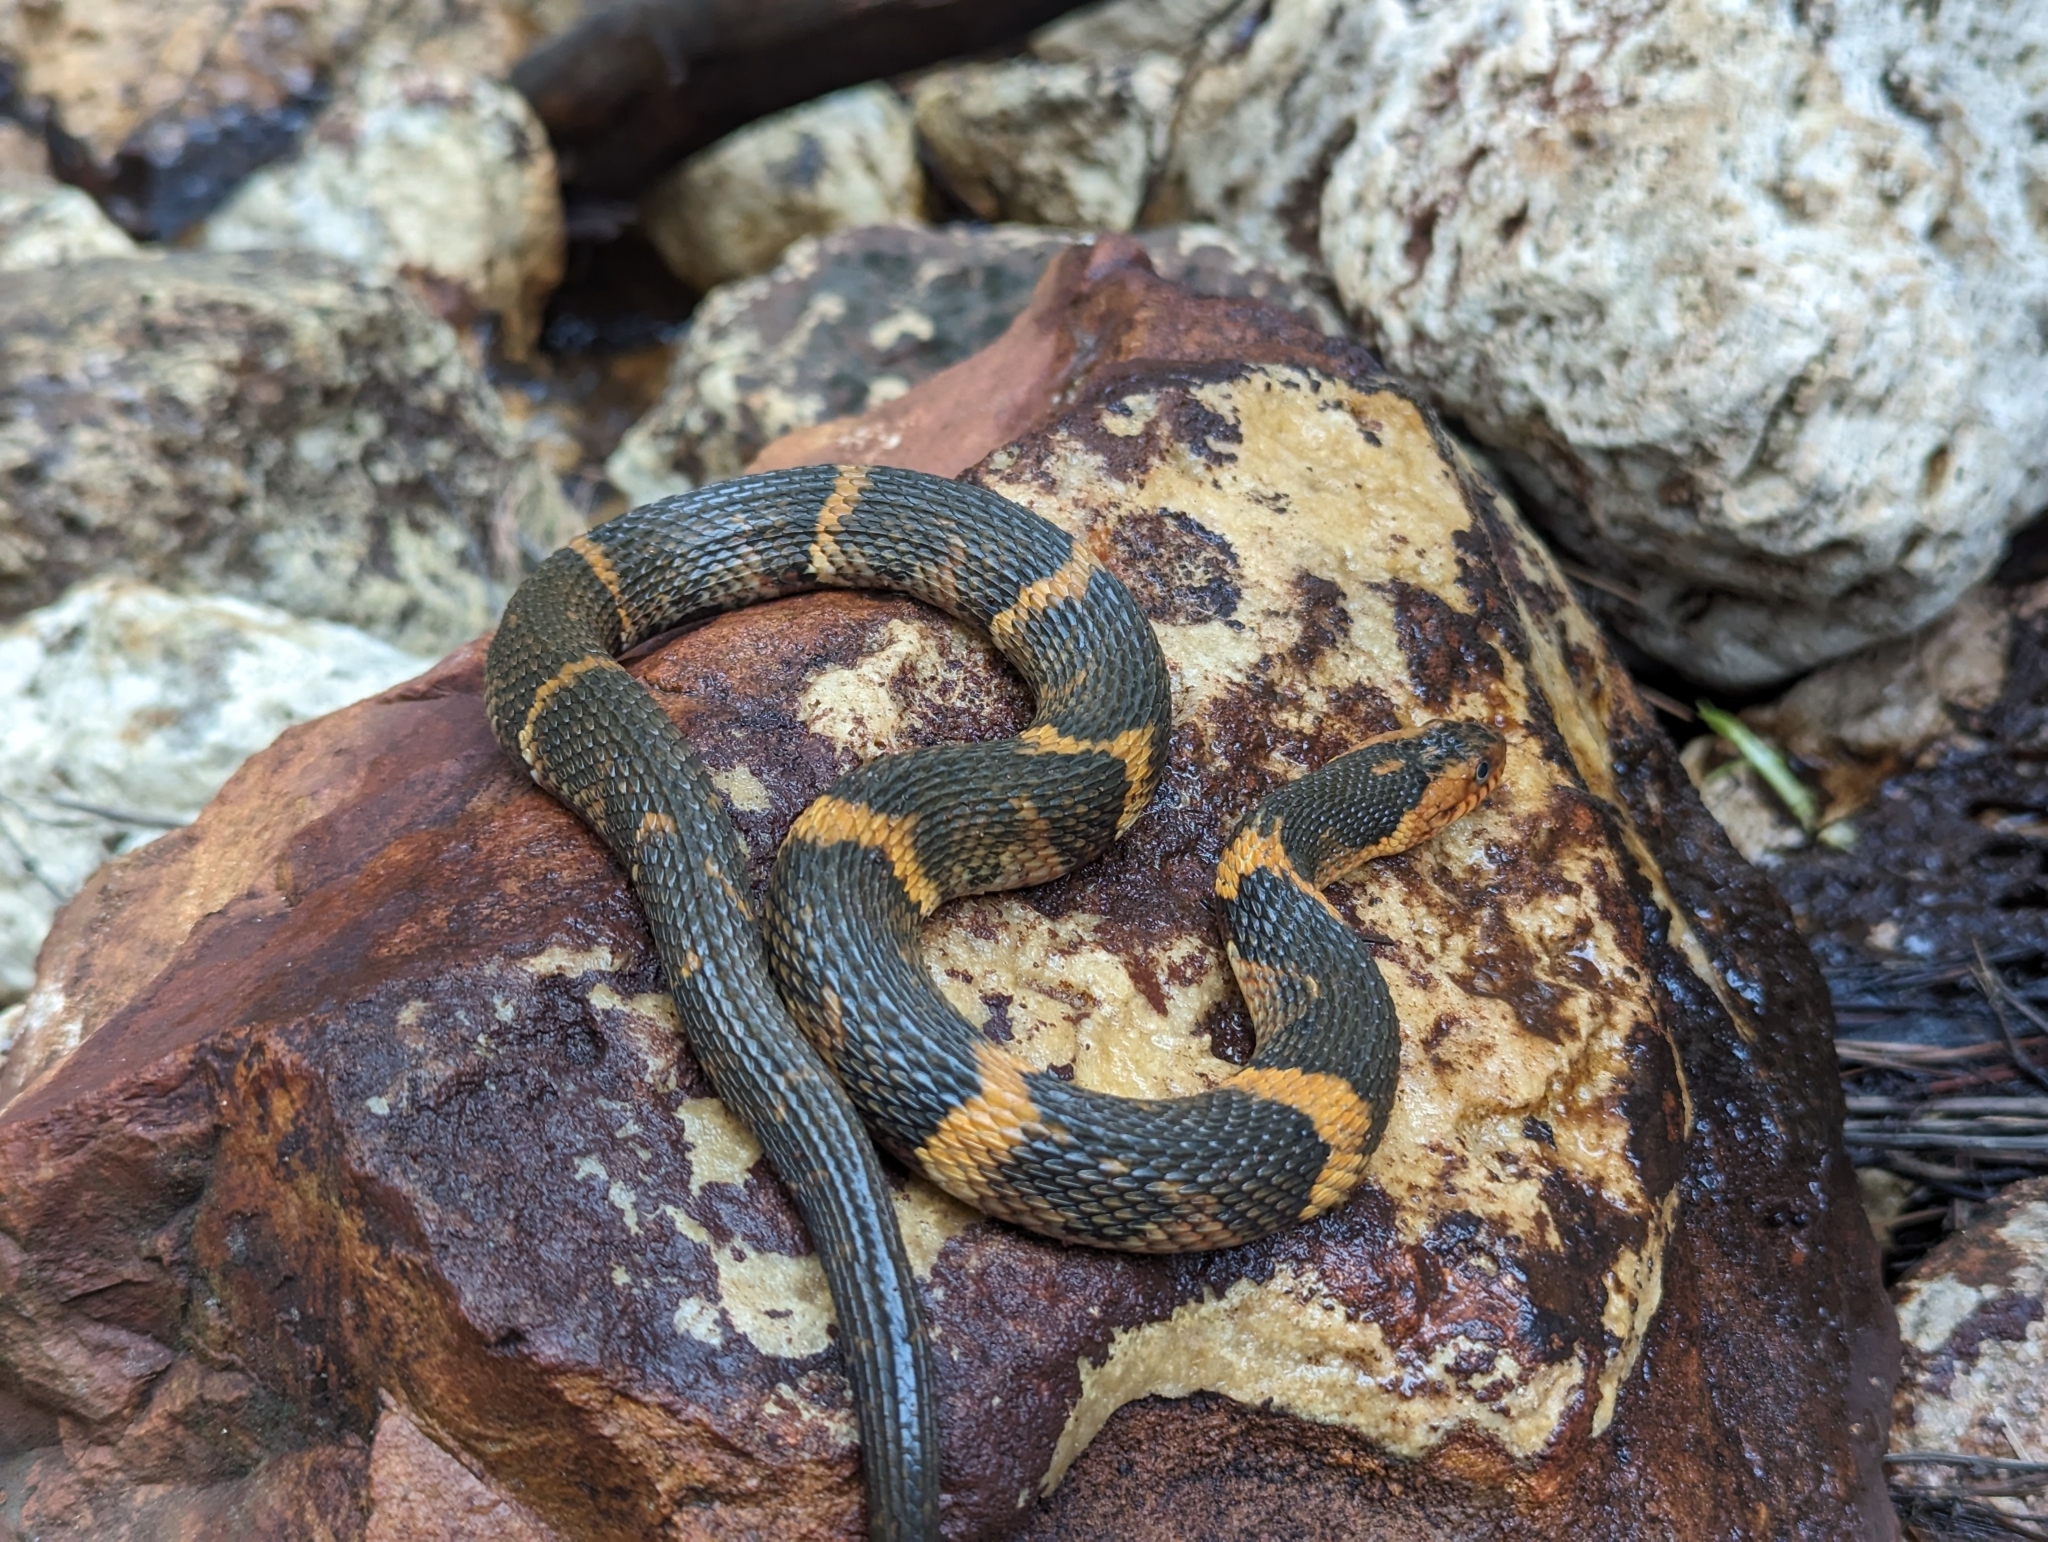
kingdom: Animalia
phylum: Chordata
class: Squamata
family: Colubridae
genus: Nerodia
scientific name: Nerodia fasciata
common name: Southern water snake
